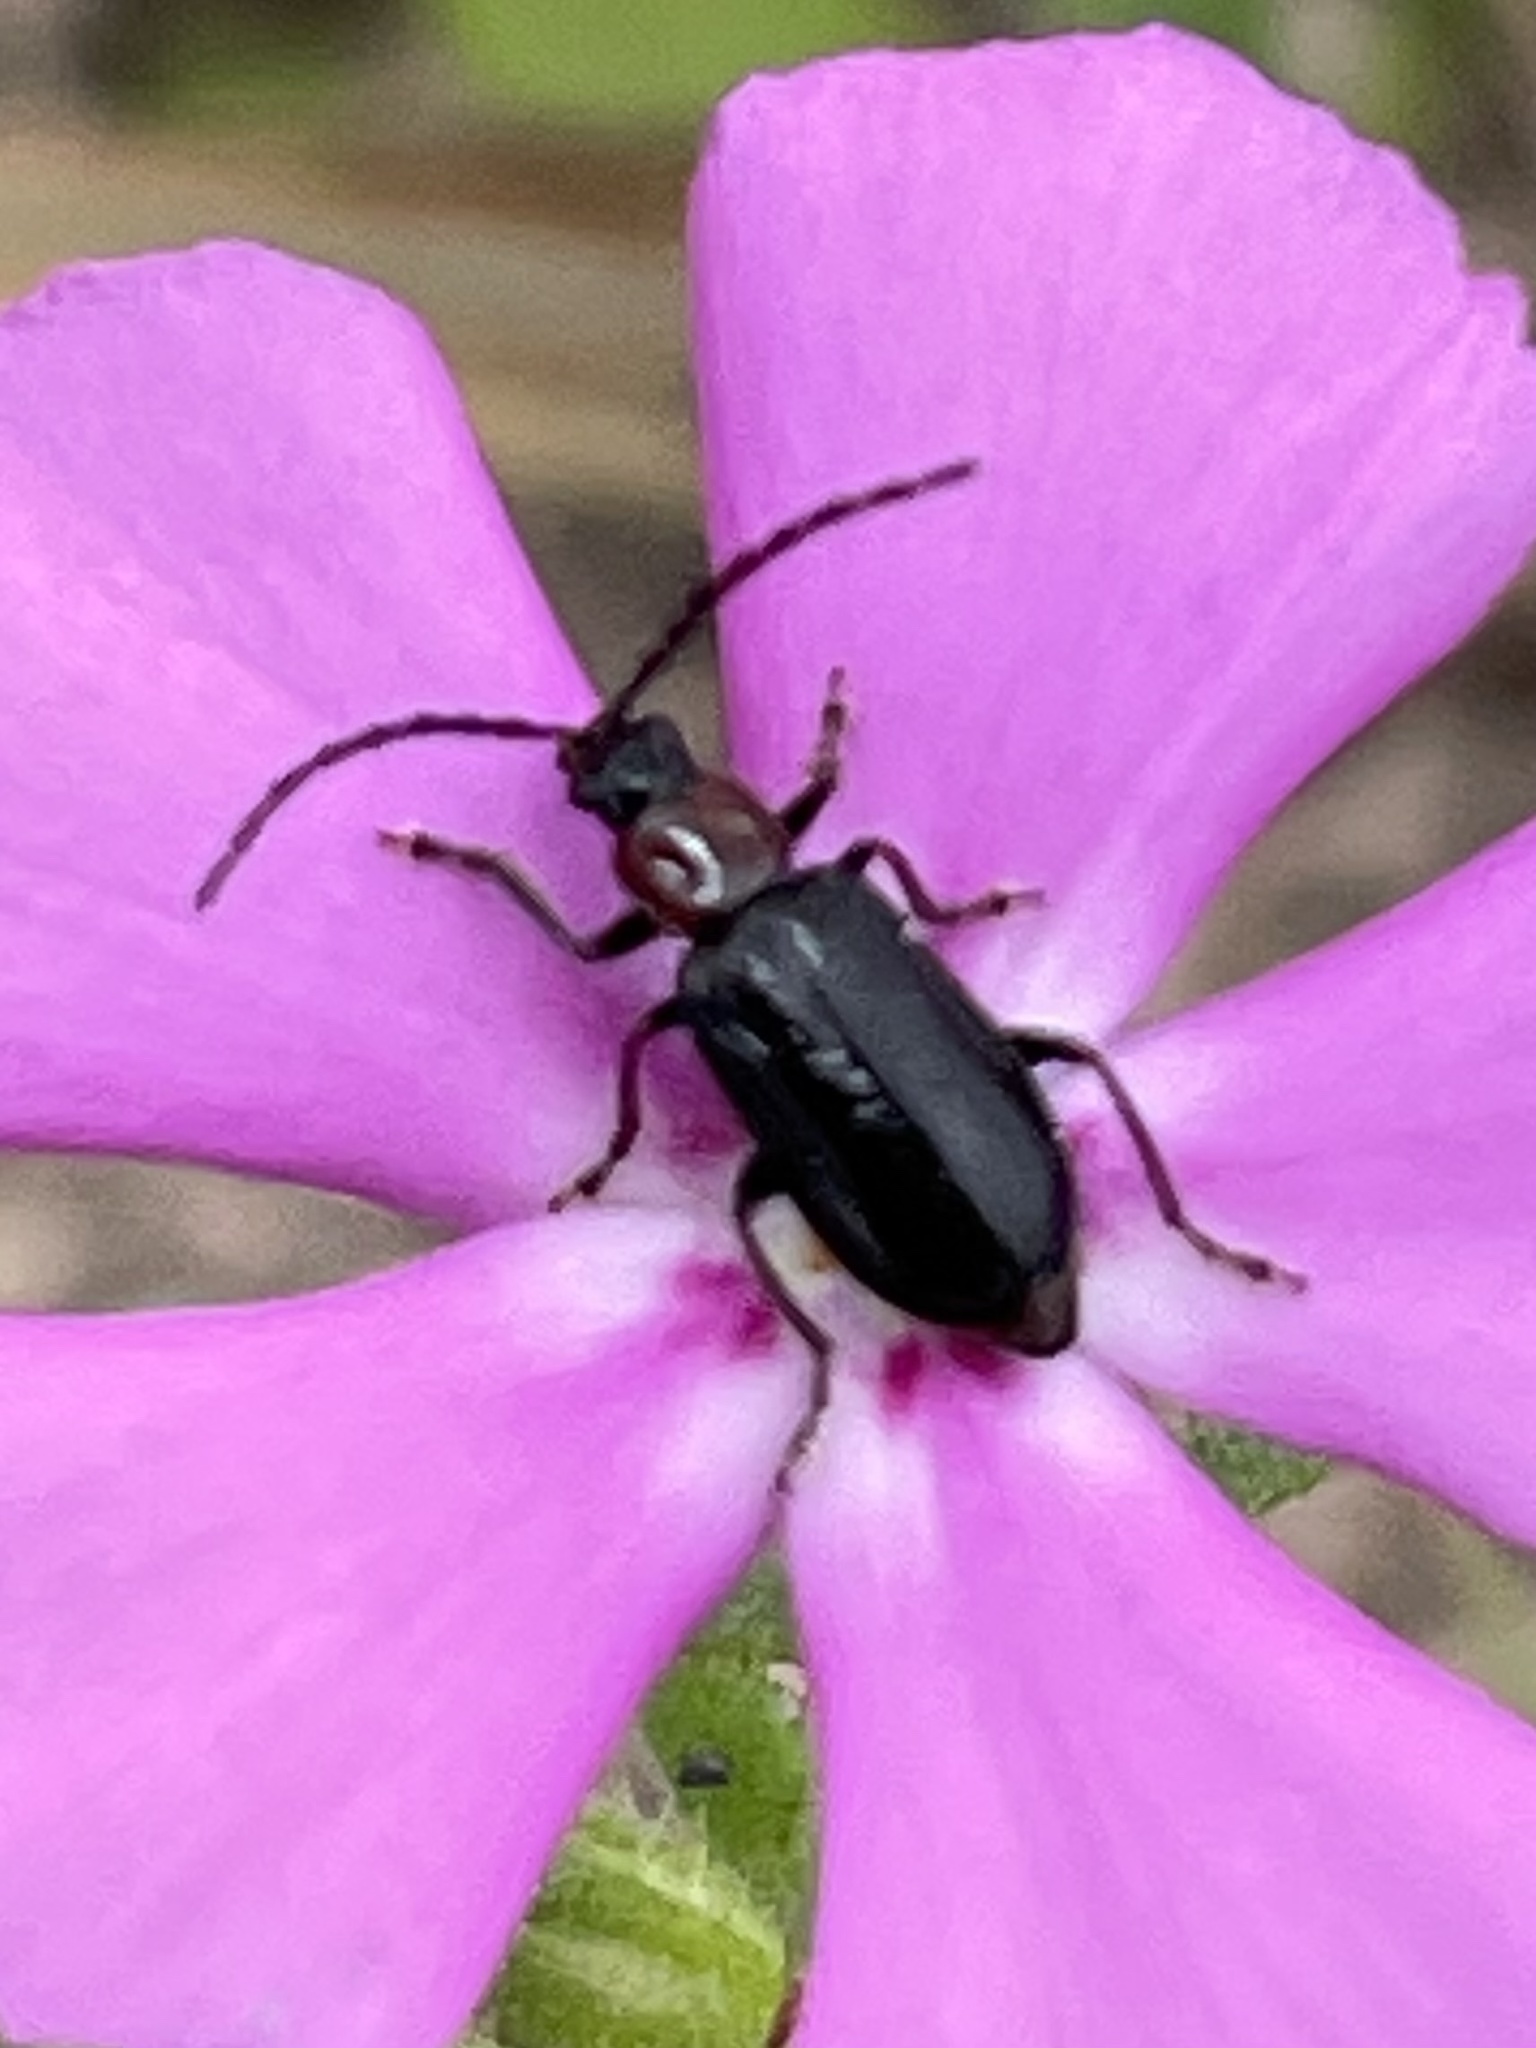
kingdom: Animalia
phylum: Arthropoda
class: Insecta
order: Coleoptera
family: Chrysomelidae
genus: Diabrotica
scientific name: Diabrotica cristata
